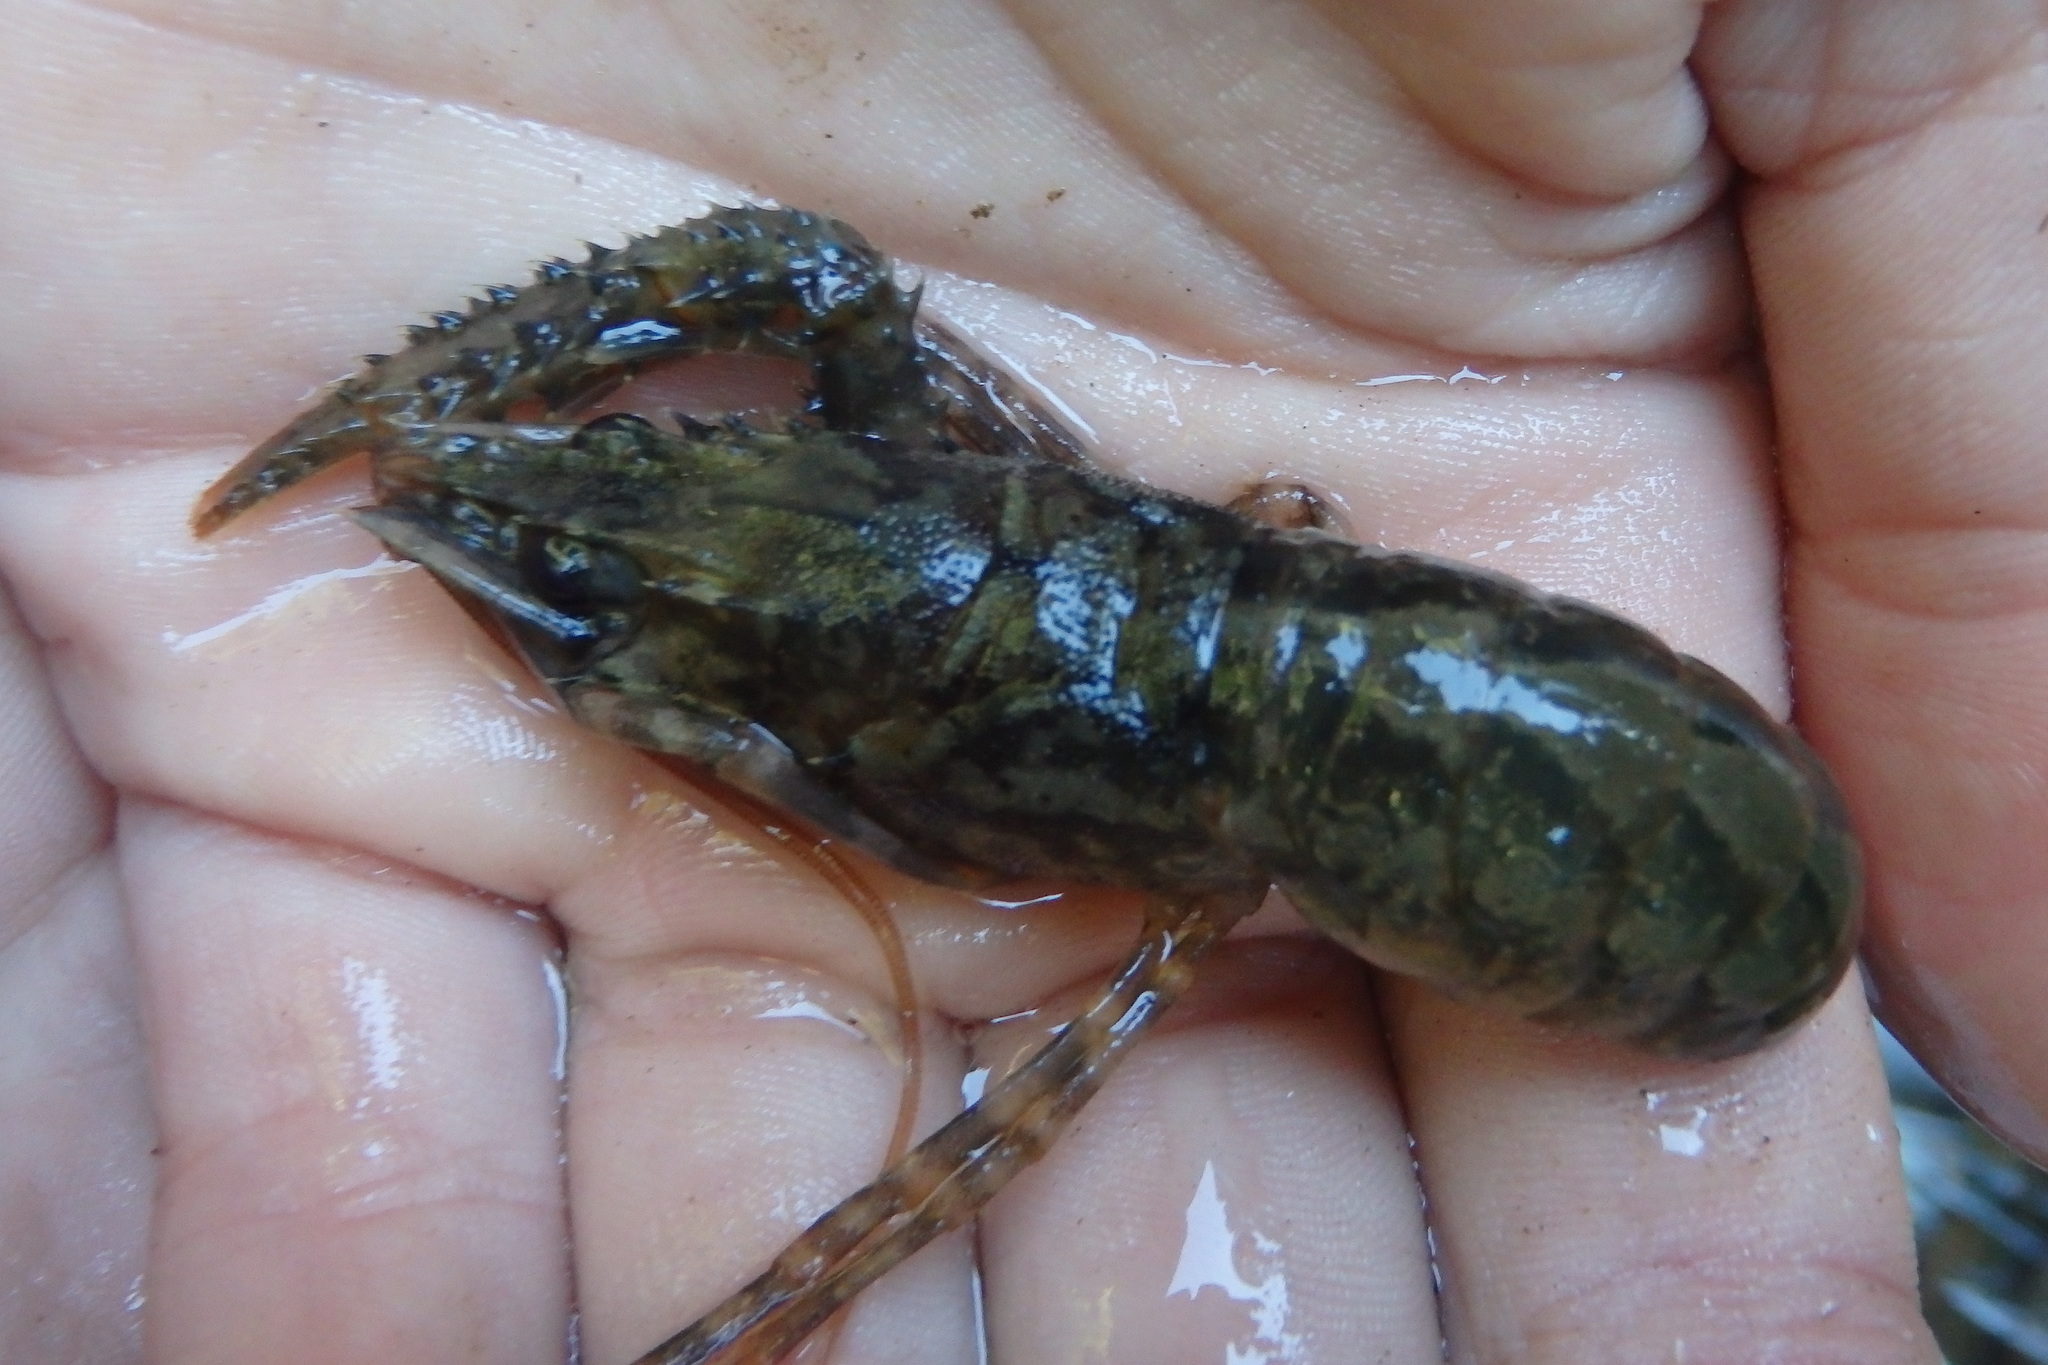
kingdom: Animalia
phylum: Arthropoda
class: Malacostraca
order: Decapoda
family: Parastacidae
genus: Paranephrops
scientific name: Paranephrops planifrons
